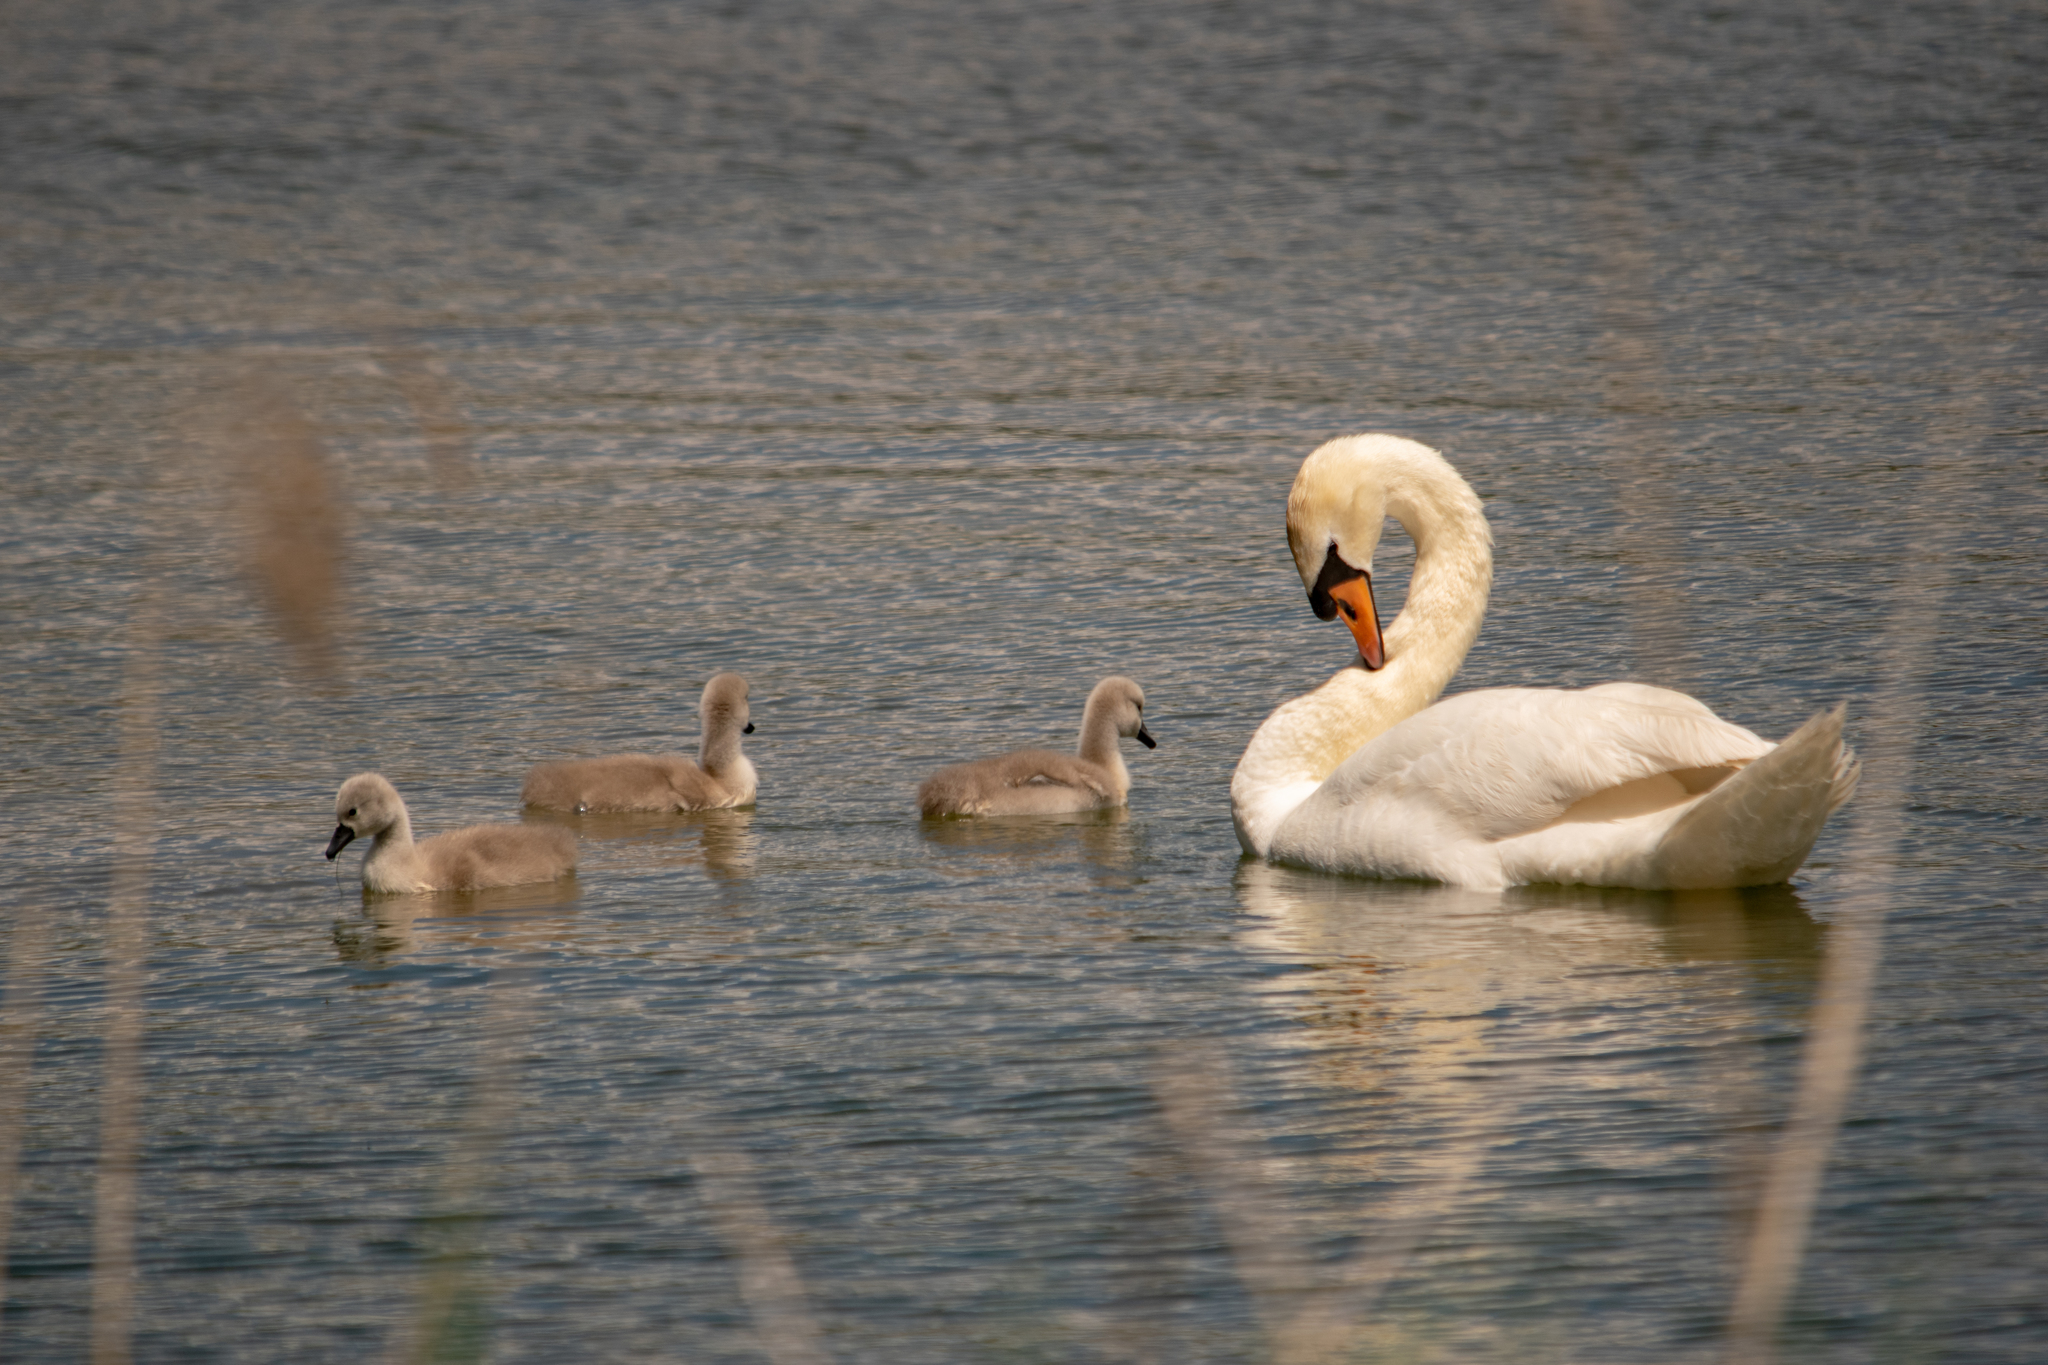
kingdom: Animalia
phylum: Chordata
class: Aves
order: Anseriformes
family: Anatidae
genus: Cygnus
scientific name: Cygnus olor
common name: Mute swan
